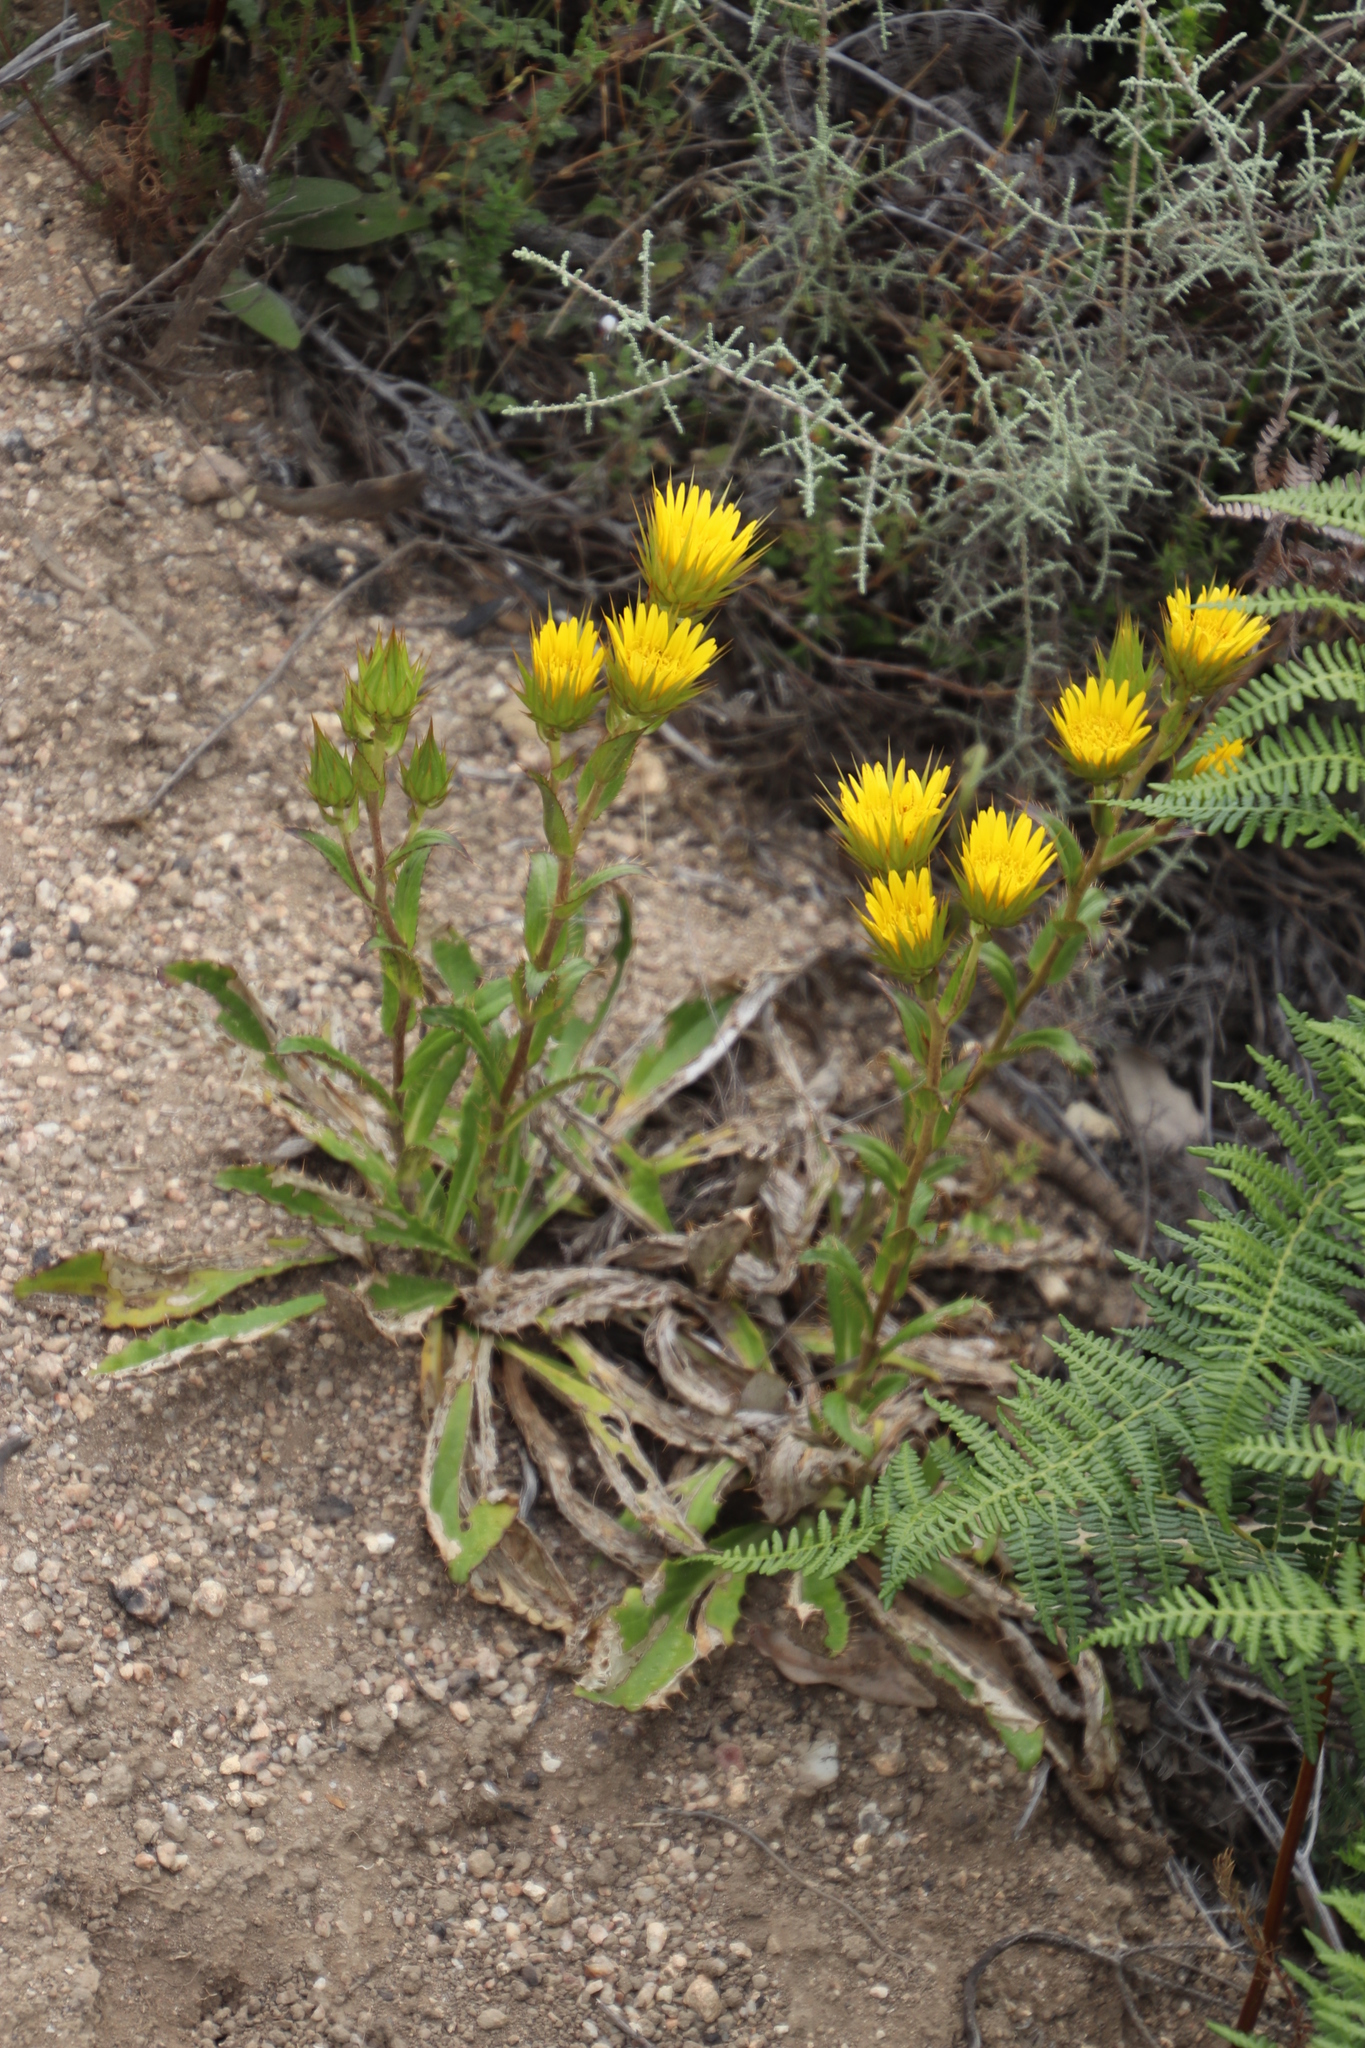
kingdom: Plantae
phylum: Tracheophyta
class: Magnoliopsida
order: Asterales
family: Asteraceae
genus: Berkheya
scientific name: Berkheya armata
